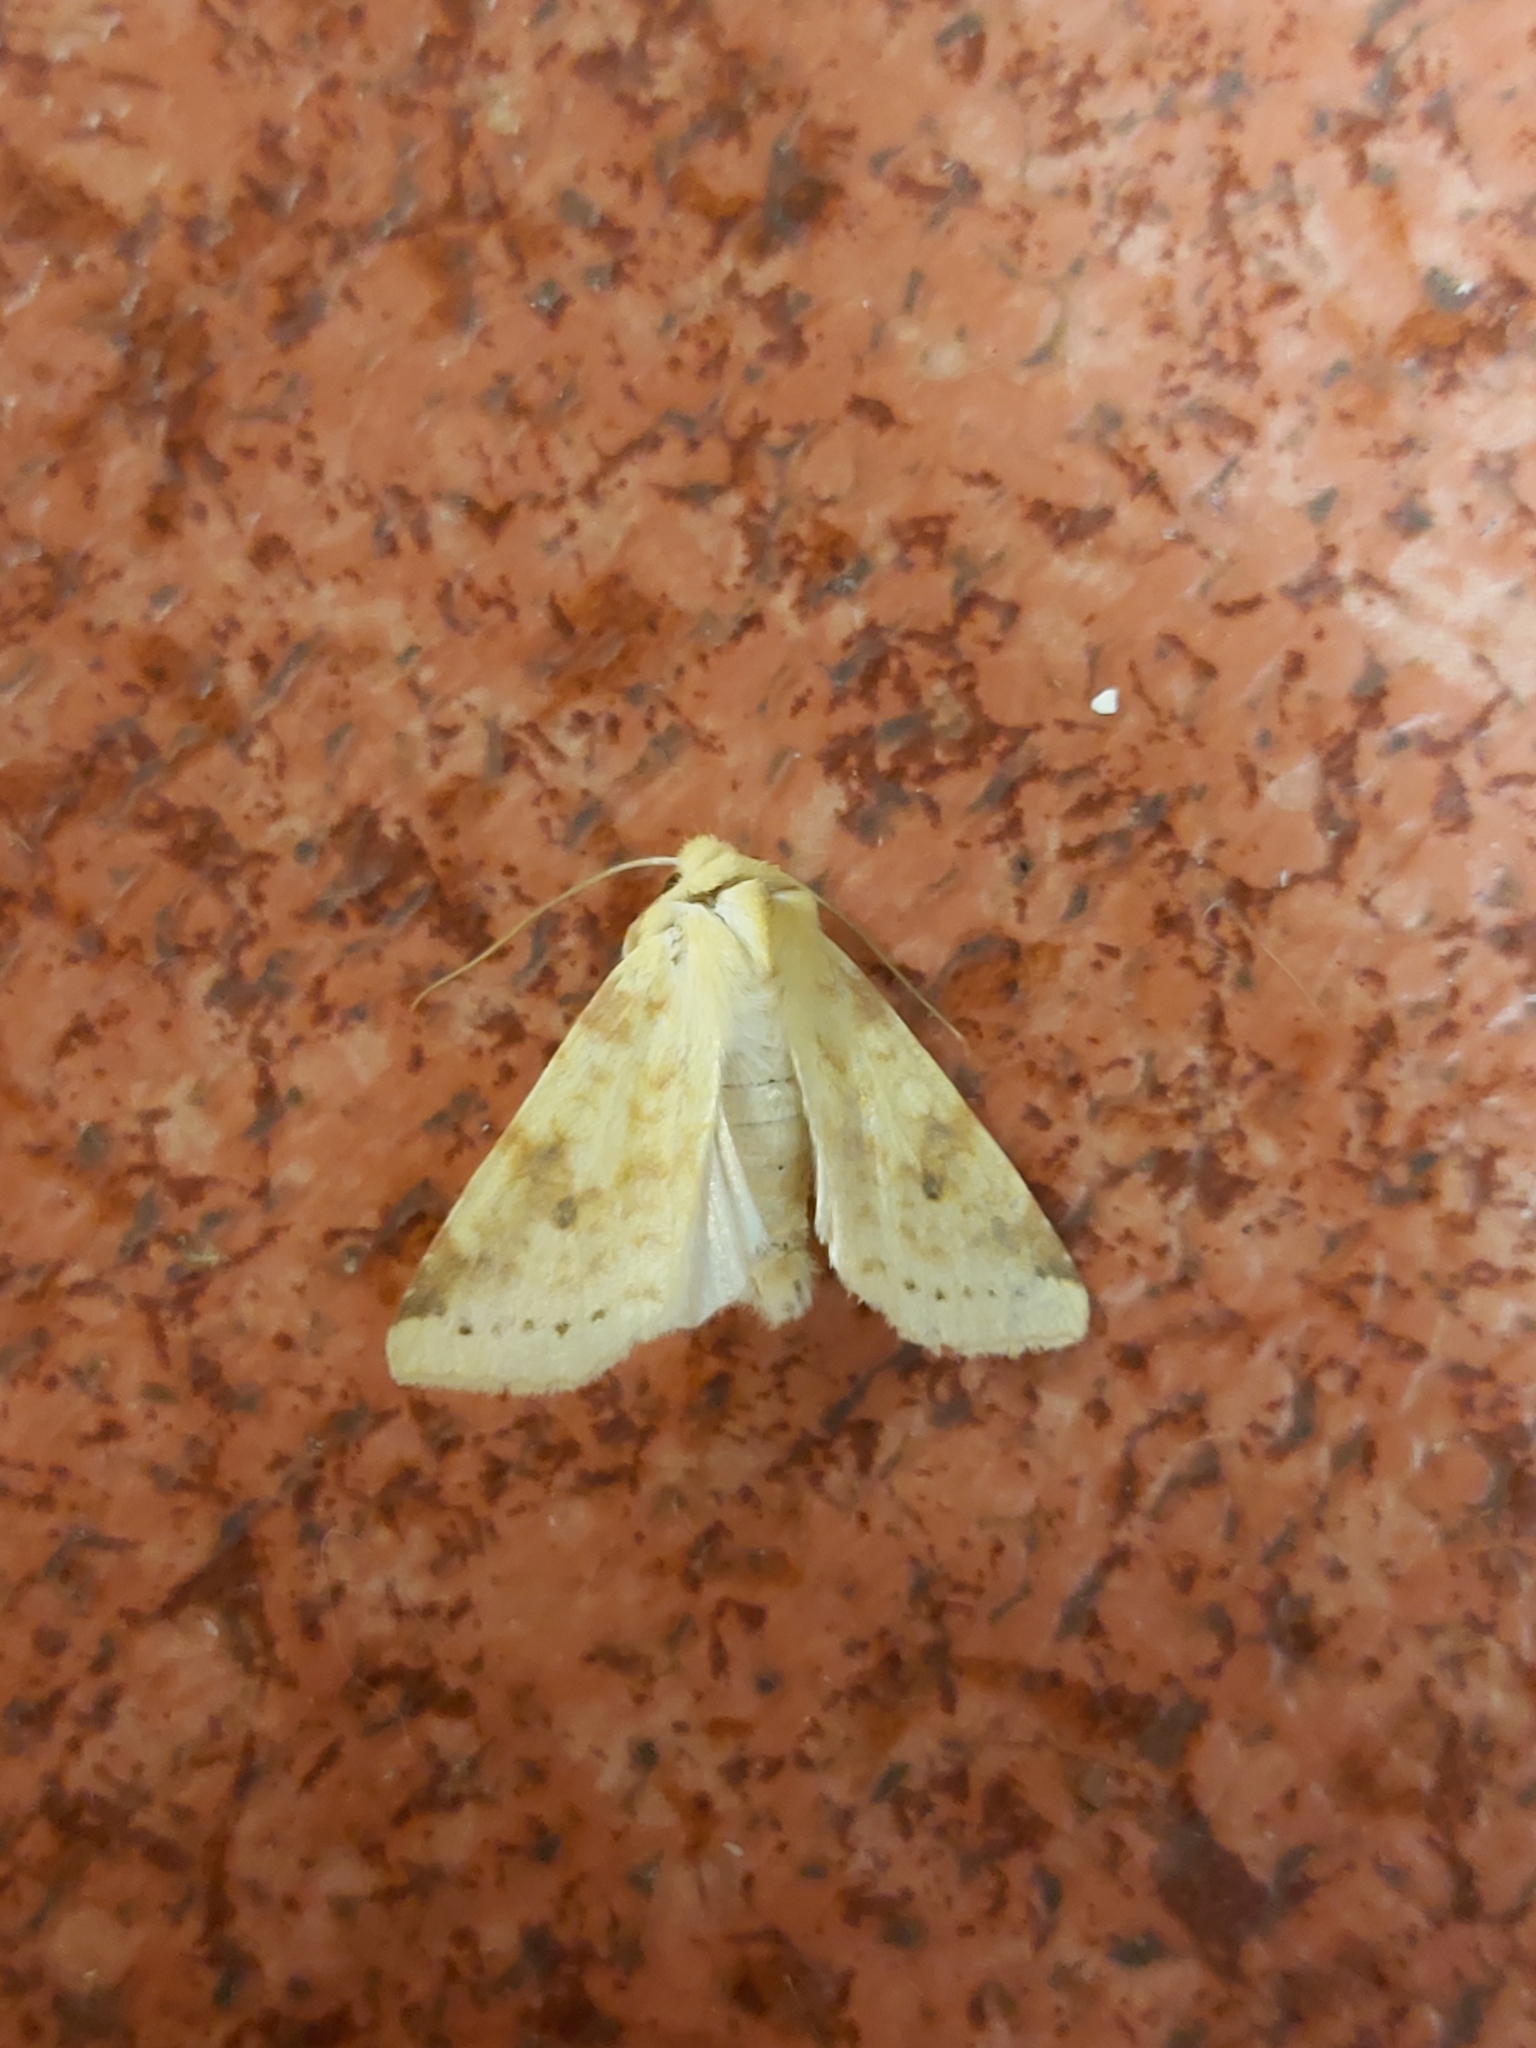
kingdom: Animalia
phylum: Arthropoda
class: Insecta
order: Lepidoptera
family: Noctuidae
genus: Xanthia
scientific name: Xanthia icteritia
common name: The sallow
